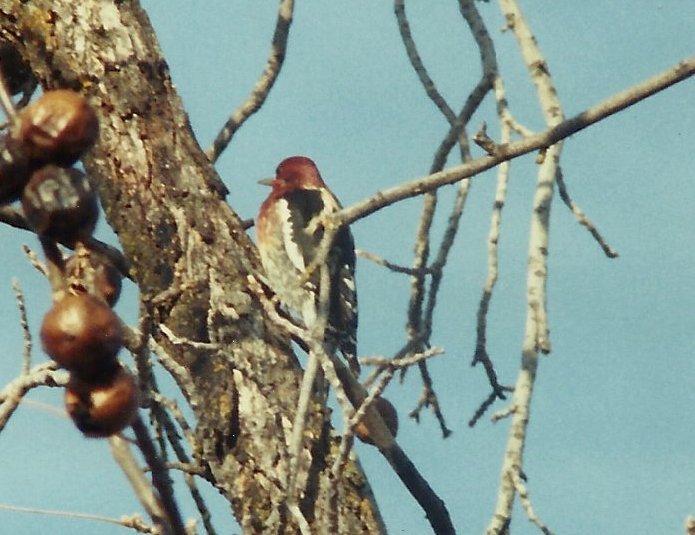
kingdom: Animalia
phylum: Chordata
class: Aves
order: Piciformes
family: Picidae
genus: Sphyrapicus
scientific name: Sphyrapicus ruber
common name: Red-breasted sapsucker
